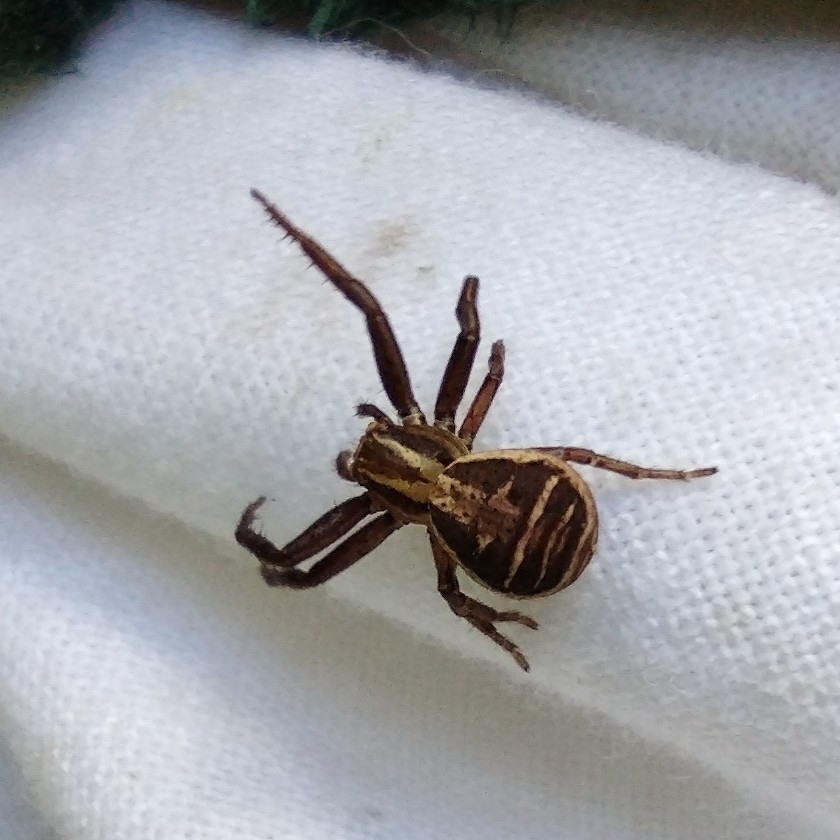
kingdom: Animalia
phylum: Arthropoda
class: Arachnida
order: Araneae
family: Thomisidae
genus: Xysticus
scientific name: Xysticus ulmi
